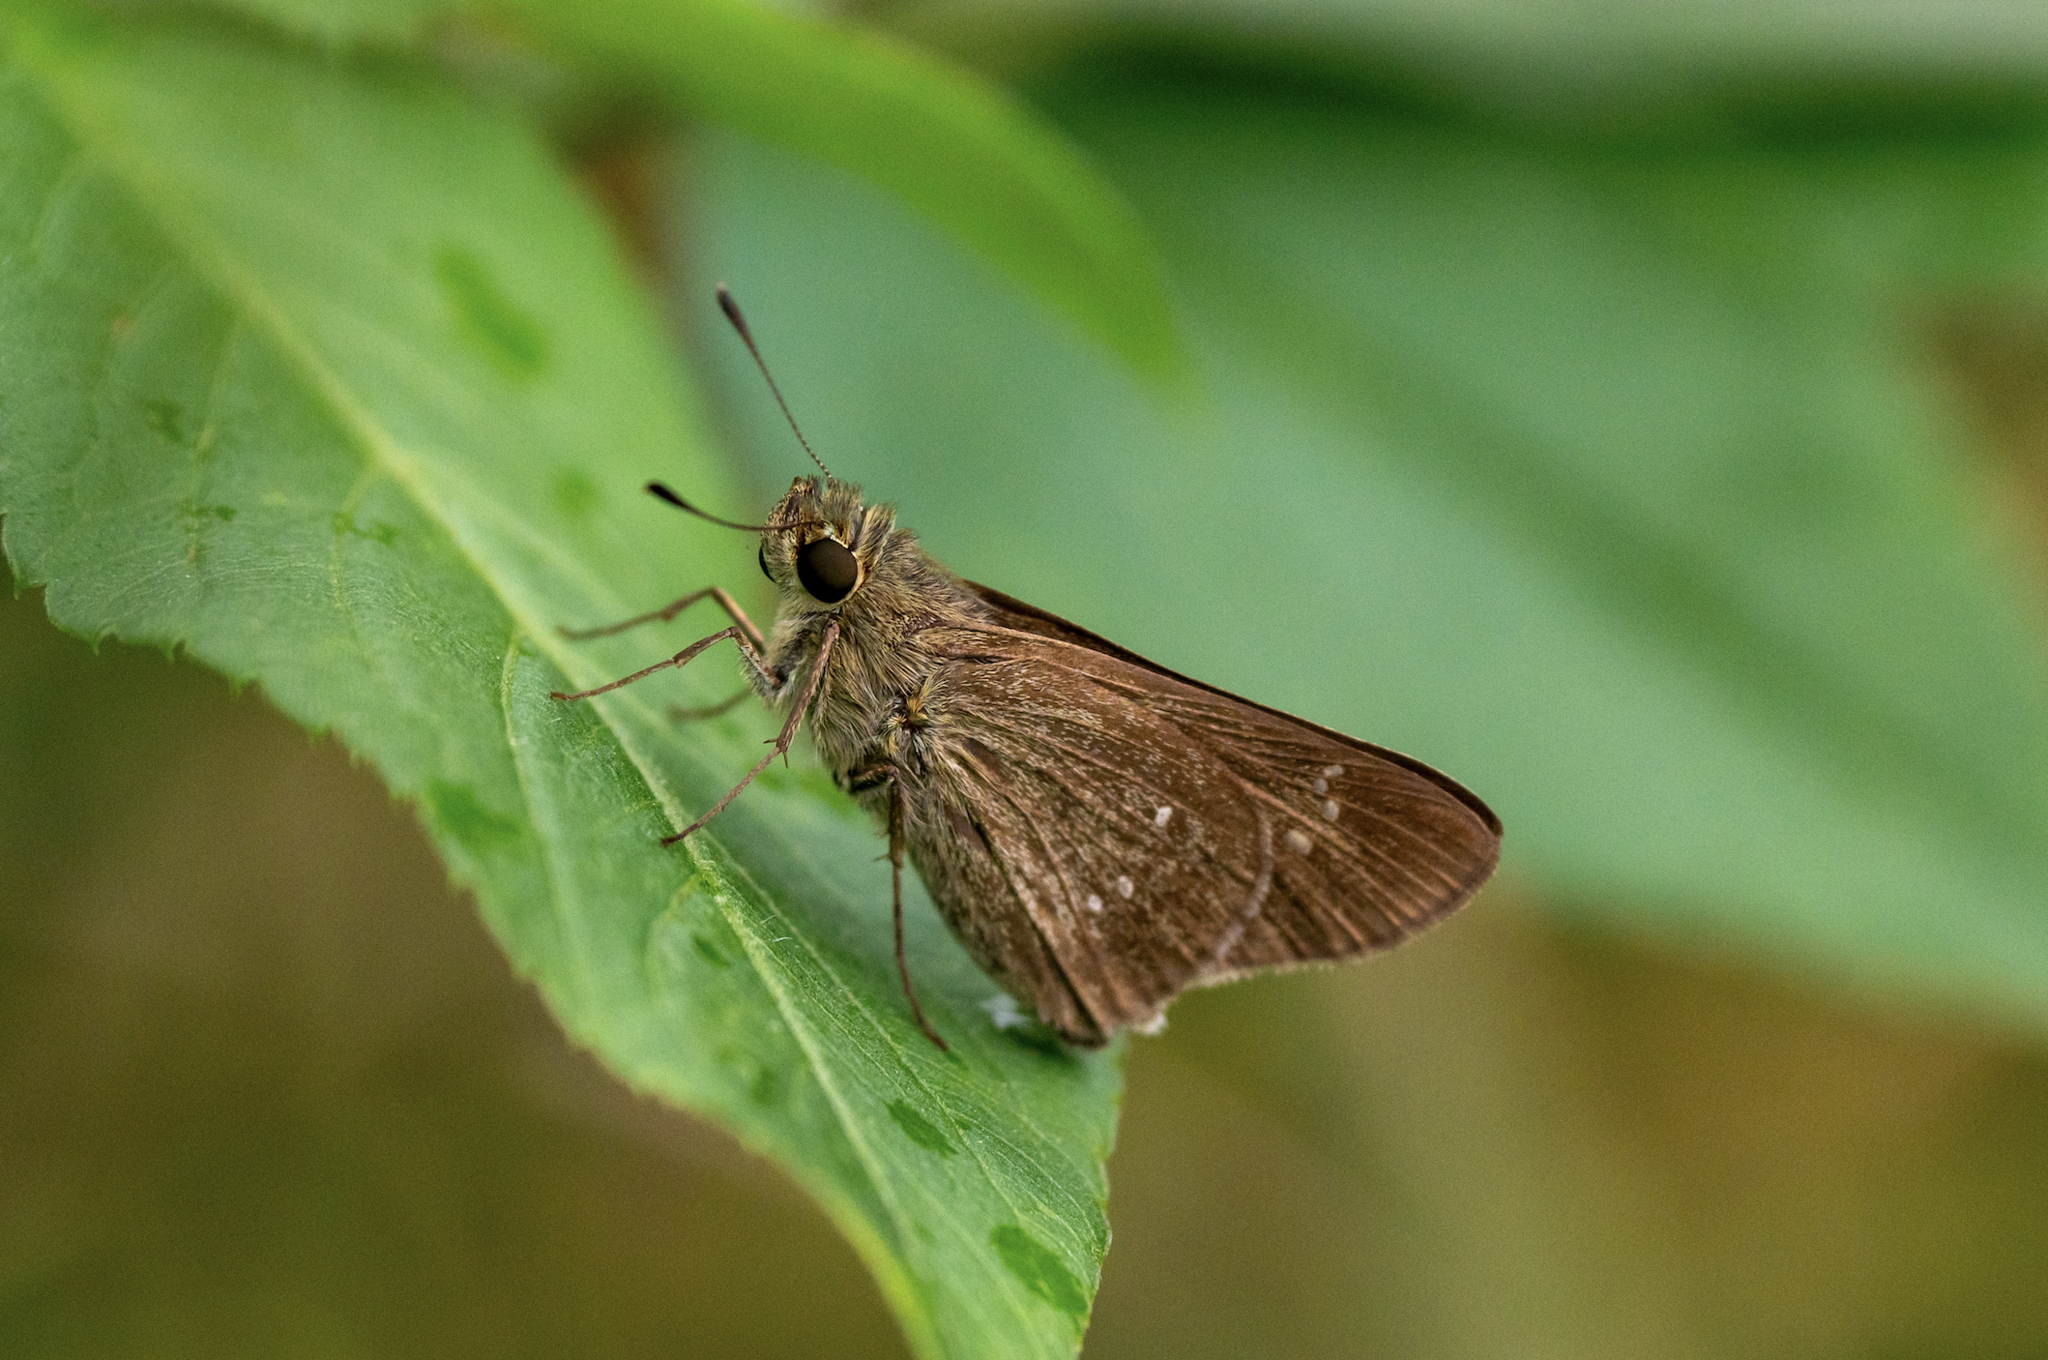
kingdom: Animalia
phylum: Arthropoda
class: Insecta
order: Lepidoptera
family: Hesperiidae
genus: Borbo
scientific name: Borbo cinnara
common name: Formosan swift
